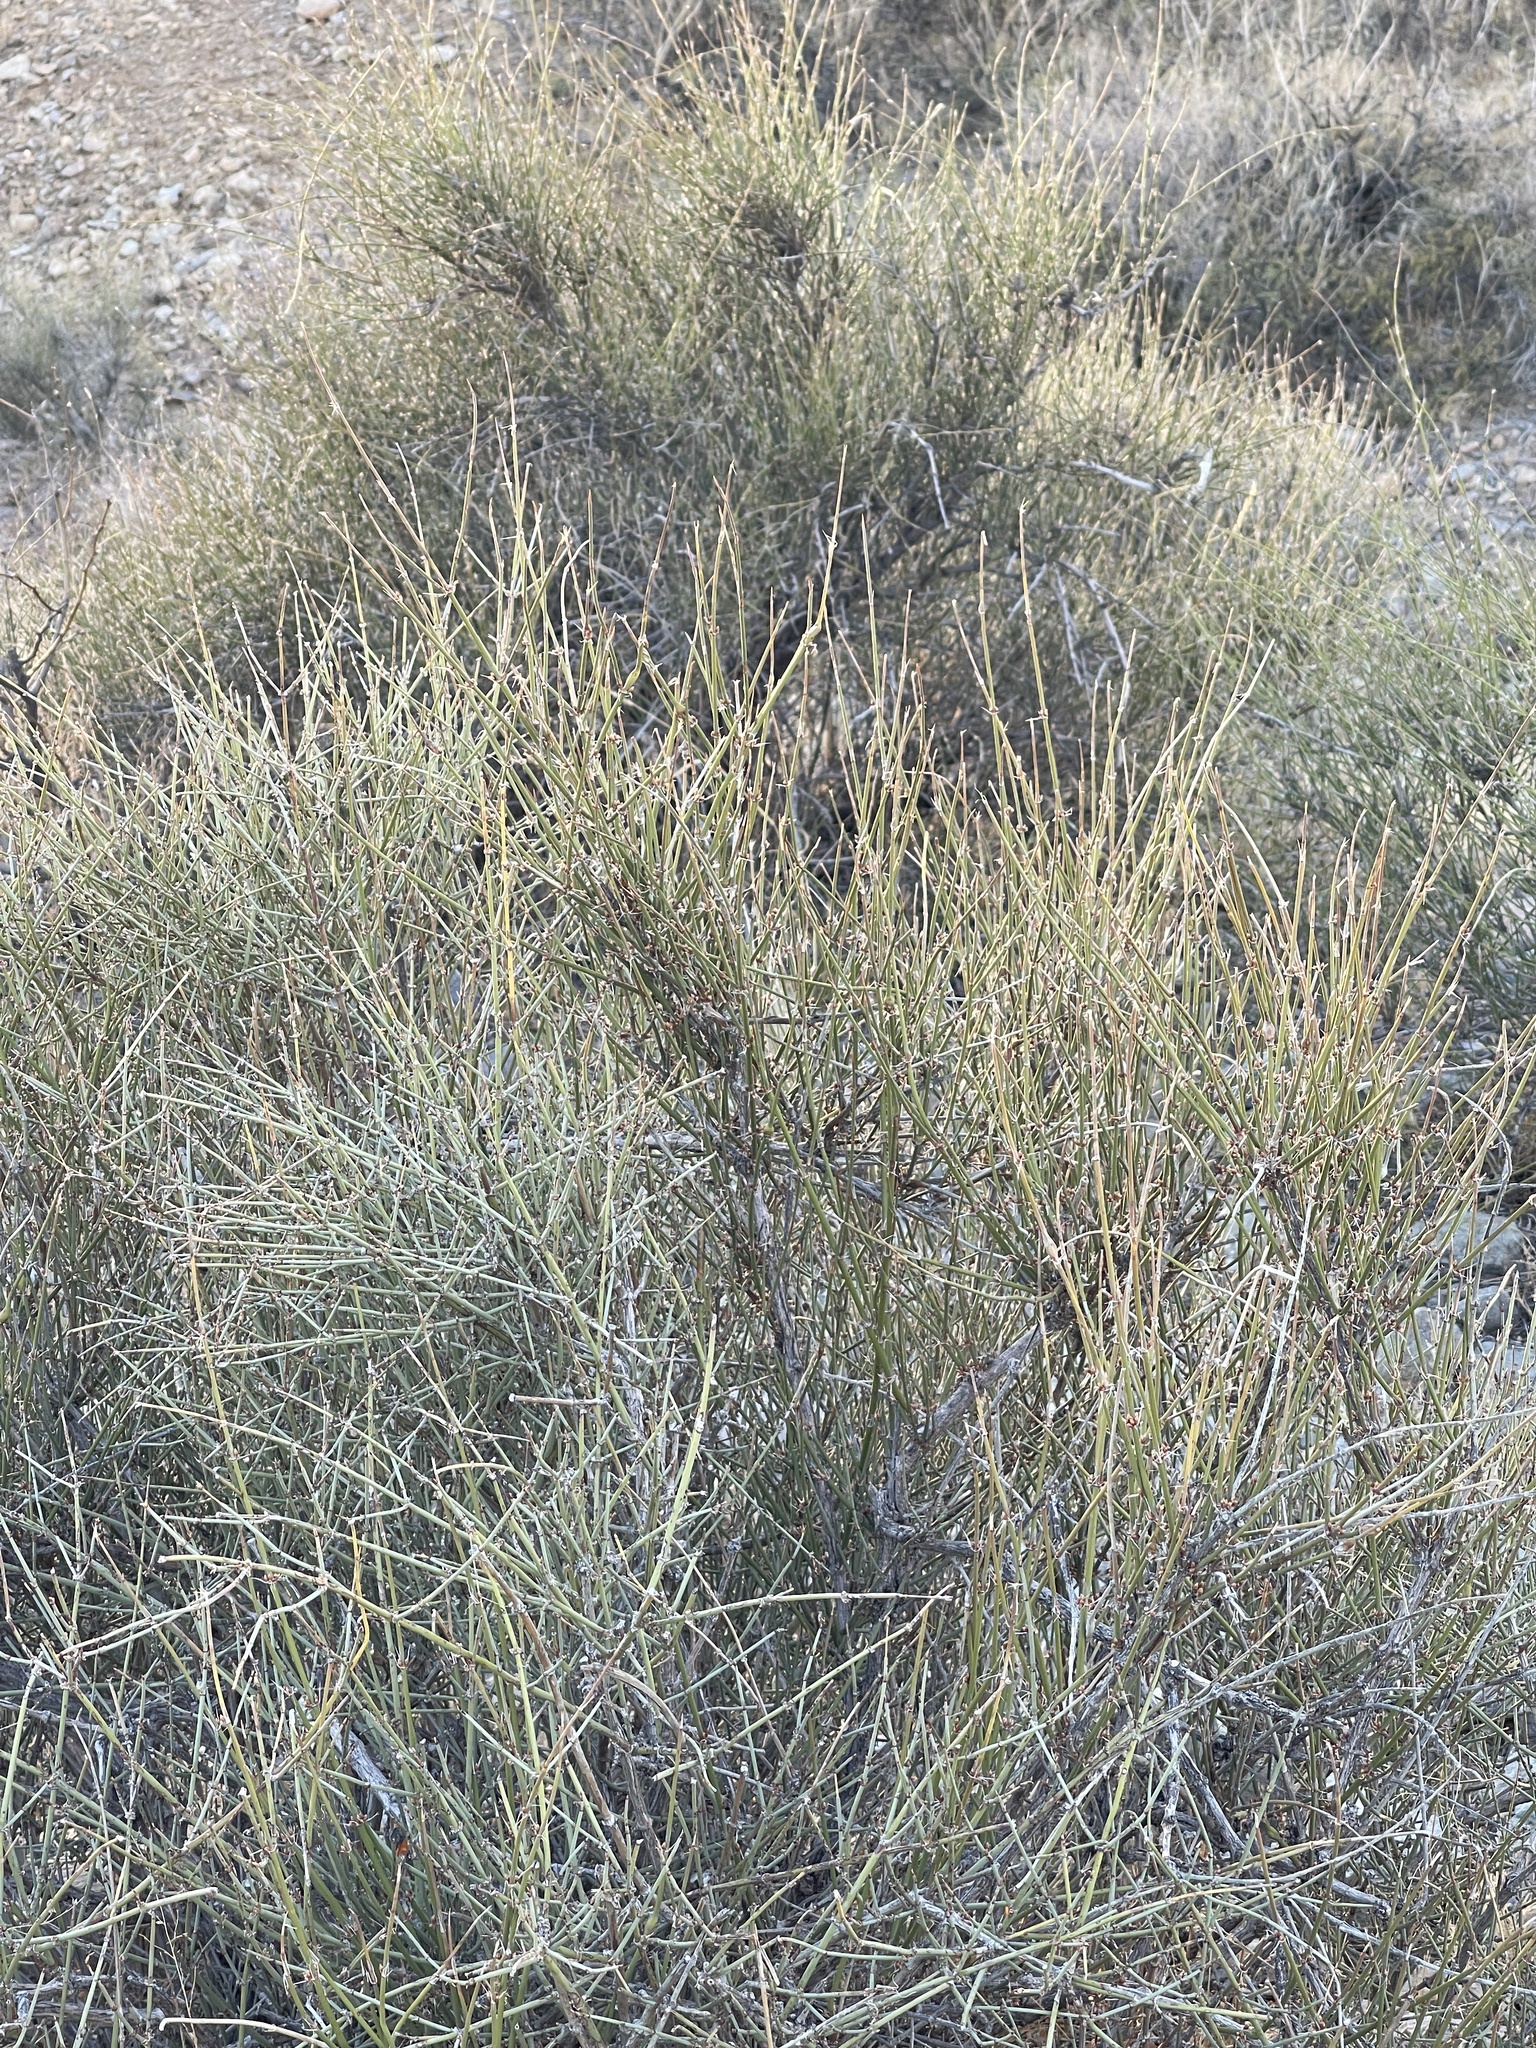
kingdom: Plantae
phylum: Tracheophyta
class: Gnetopsida
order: Ephedrales
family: Ephedraceae
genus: Ephedra
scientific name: Ephedra trifurca
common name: Mexican-tea
